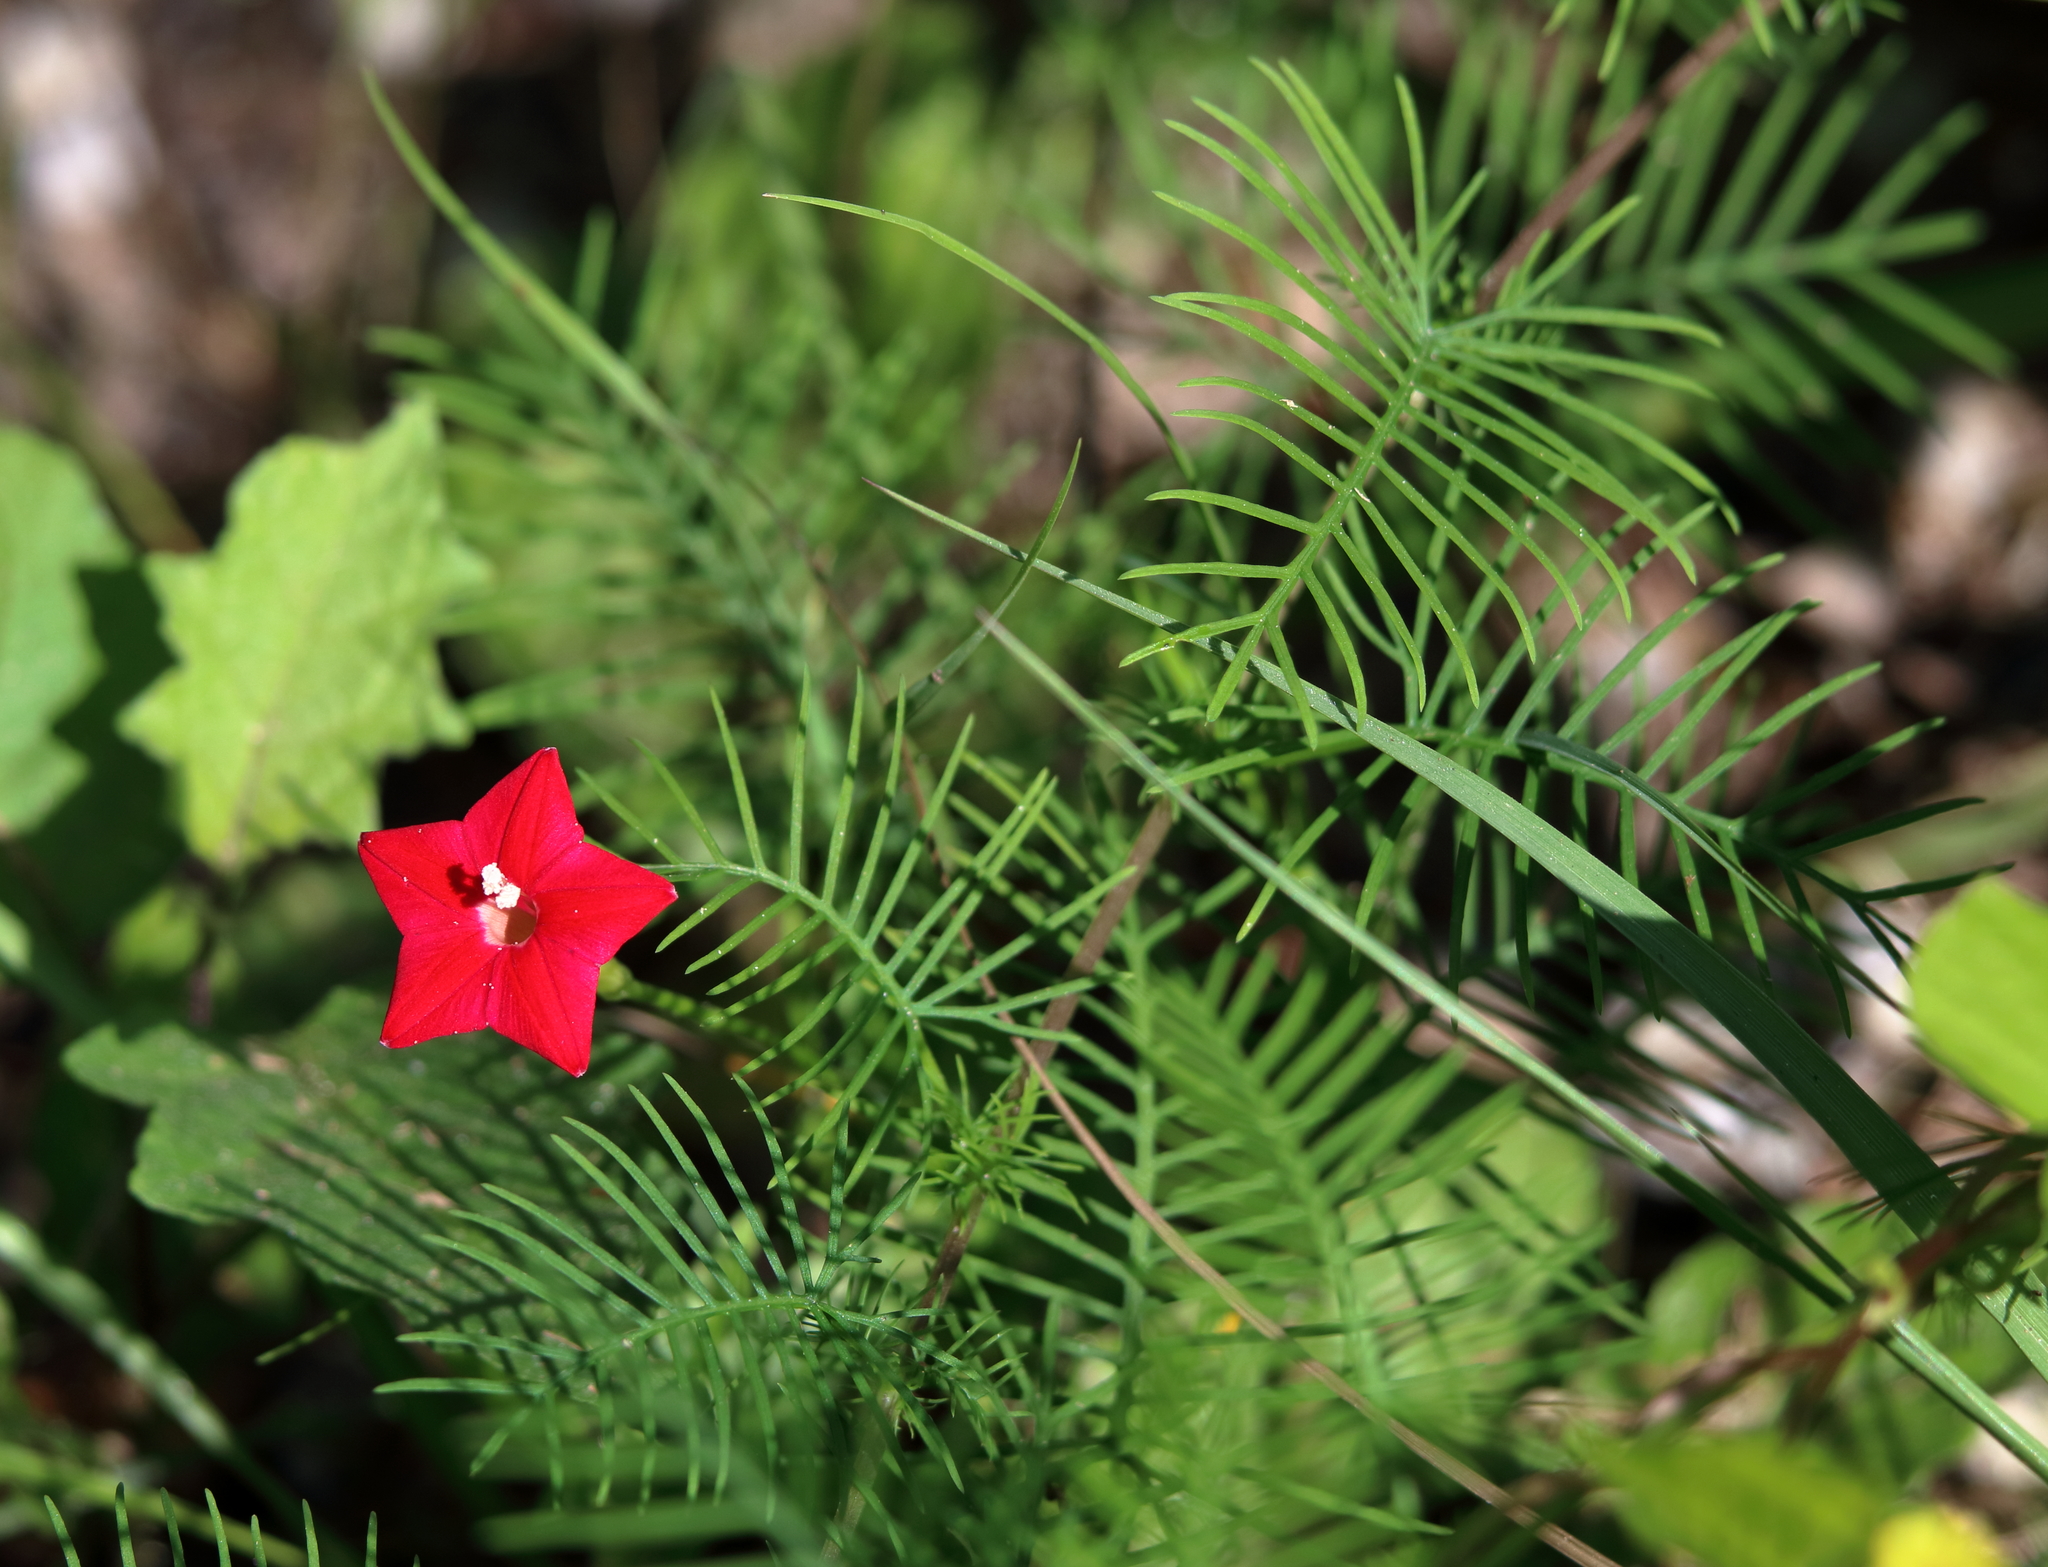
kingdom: Plantae
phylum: Tracheophyta
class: Magnoliopsida
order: Solanales
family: Convolvulaceae
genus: Ipomoea
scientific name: Ipomoea quamoclit
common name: Cypress vine
